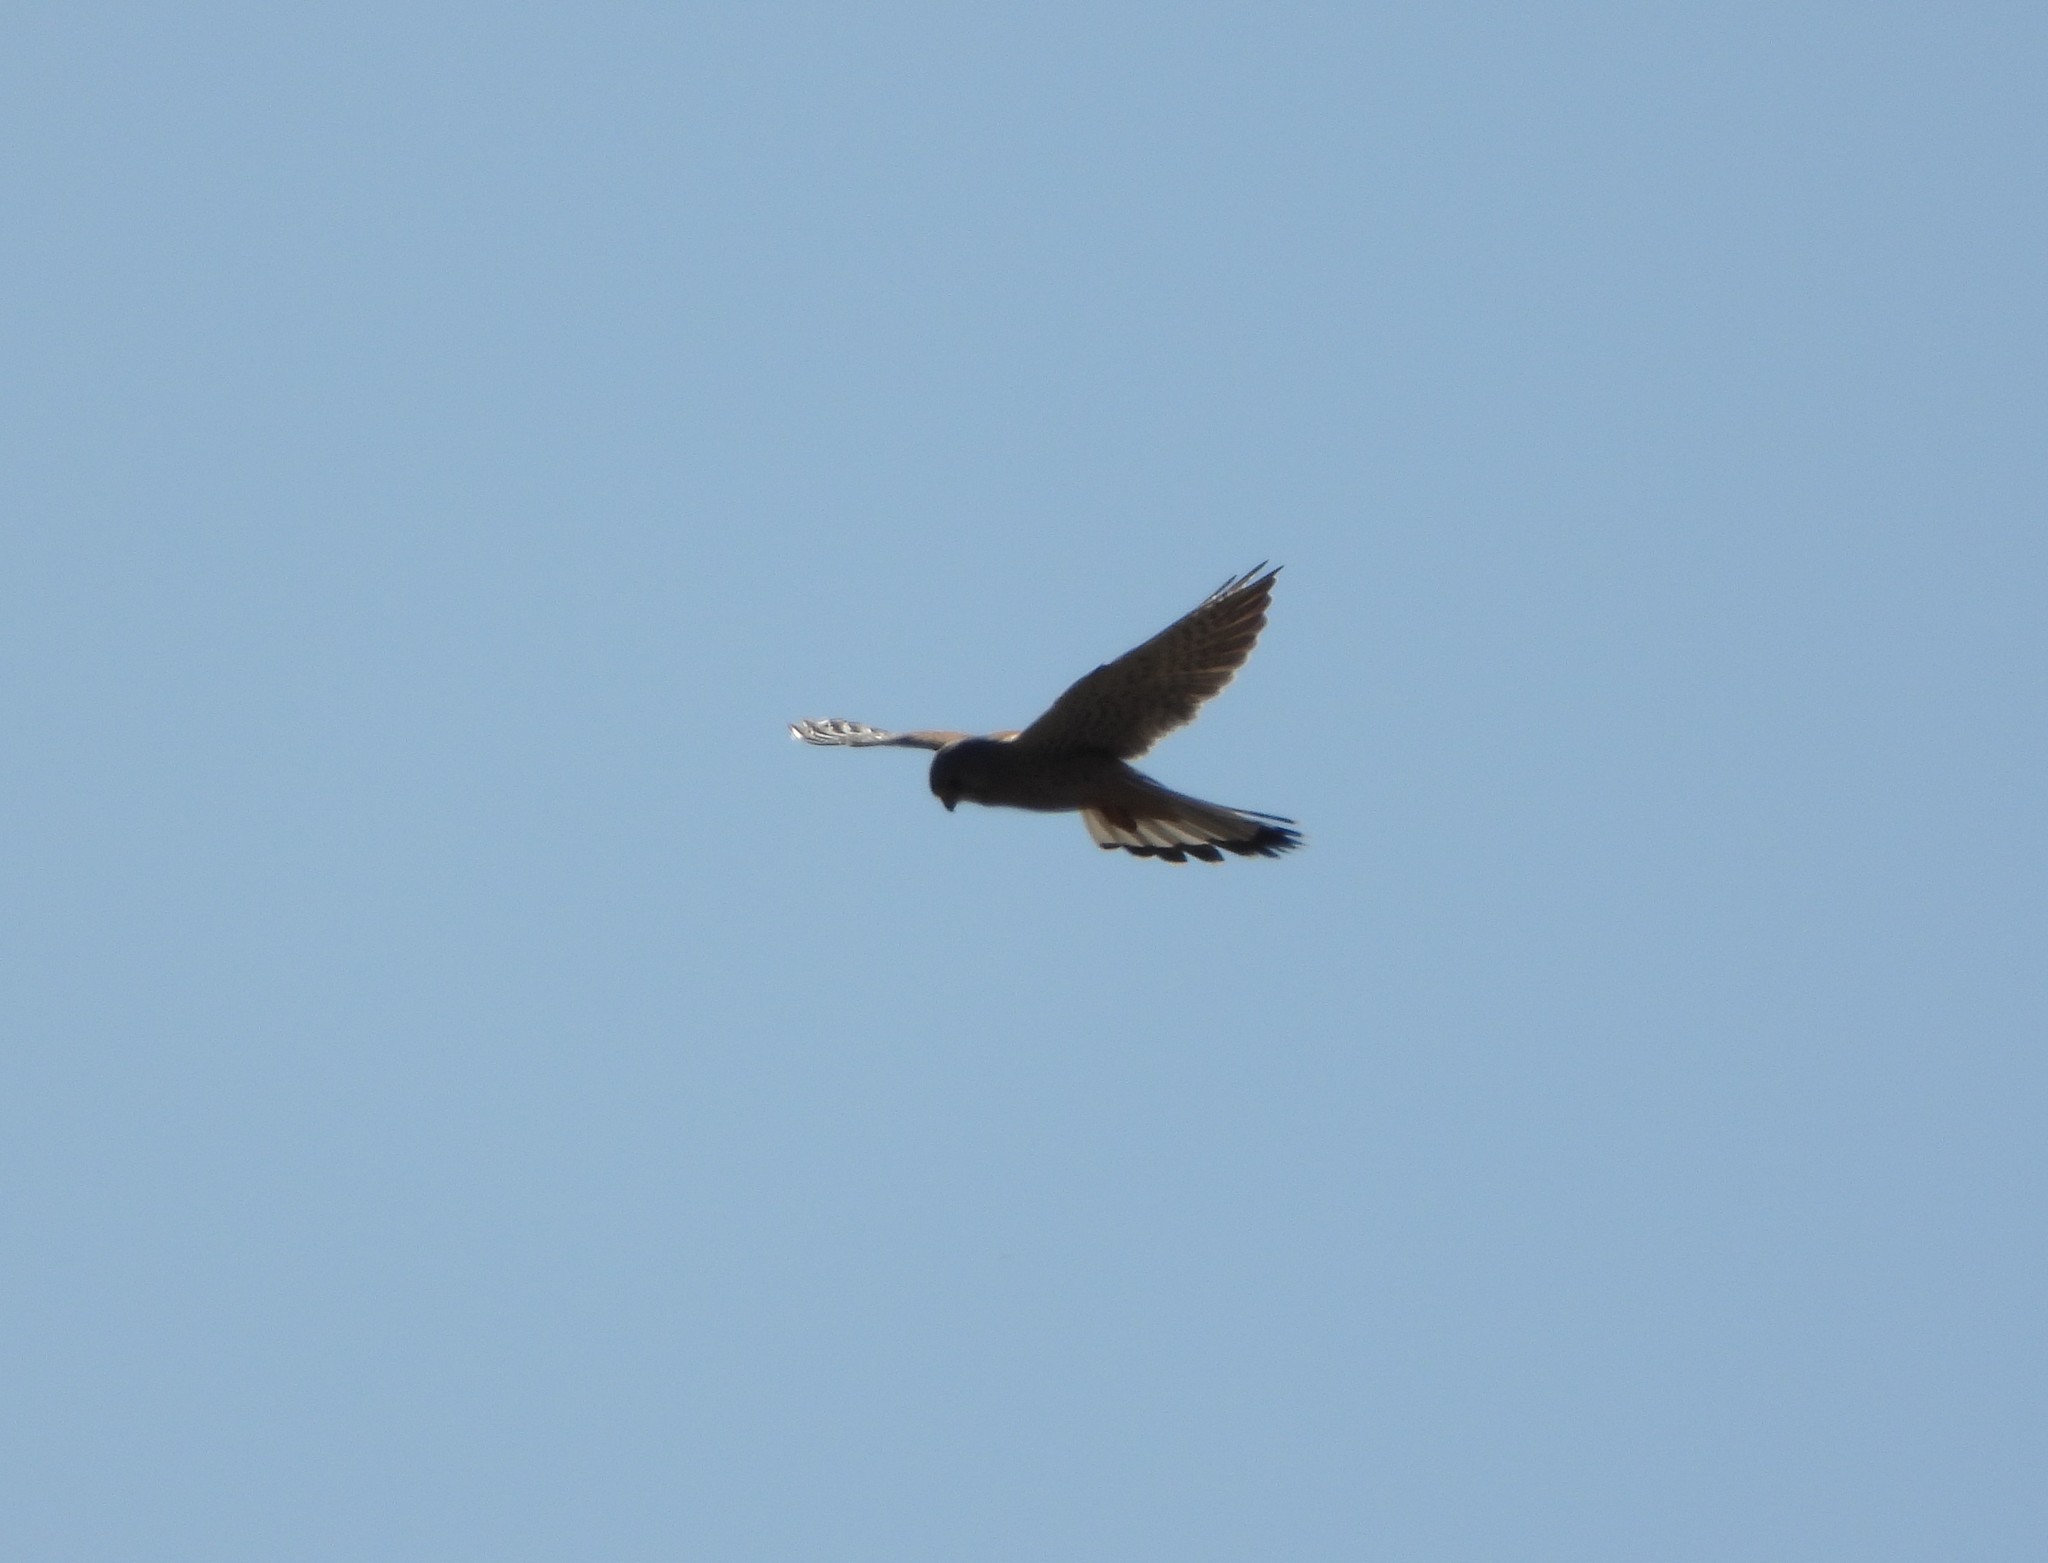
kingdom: Animalia
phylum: Chordata
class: Aves
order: Falconiformes
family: Falconidae
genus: Falco
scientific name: Falco tinnunculus
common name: Common kestrel
